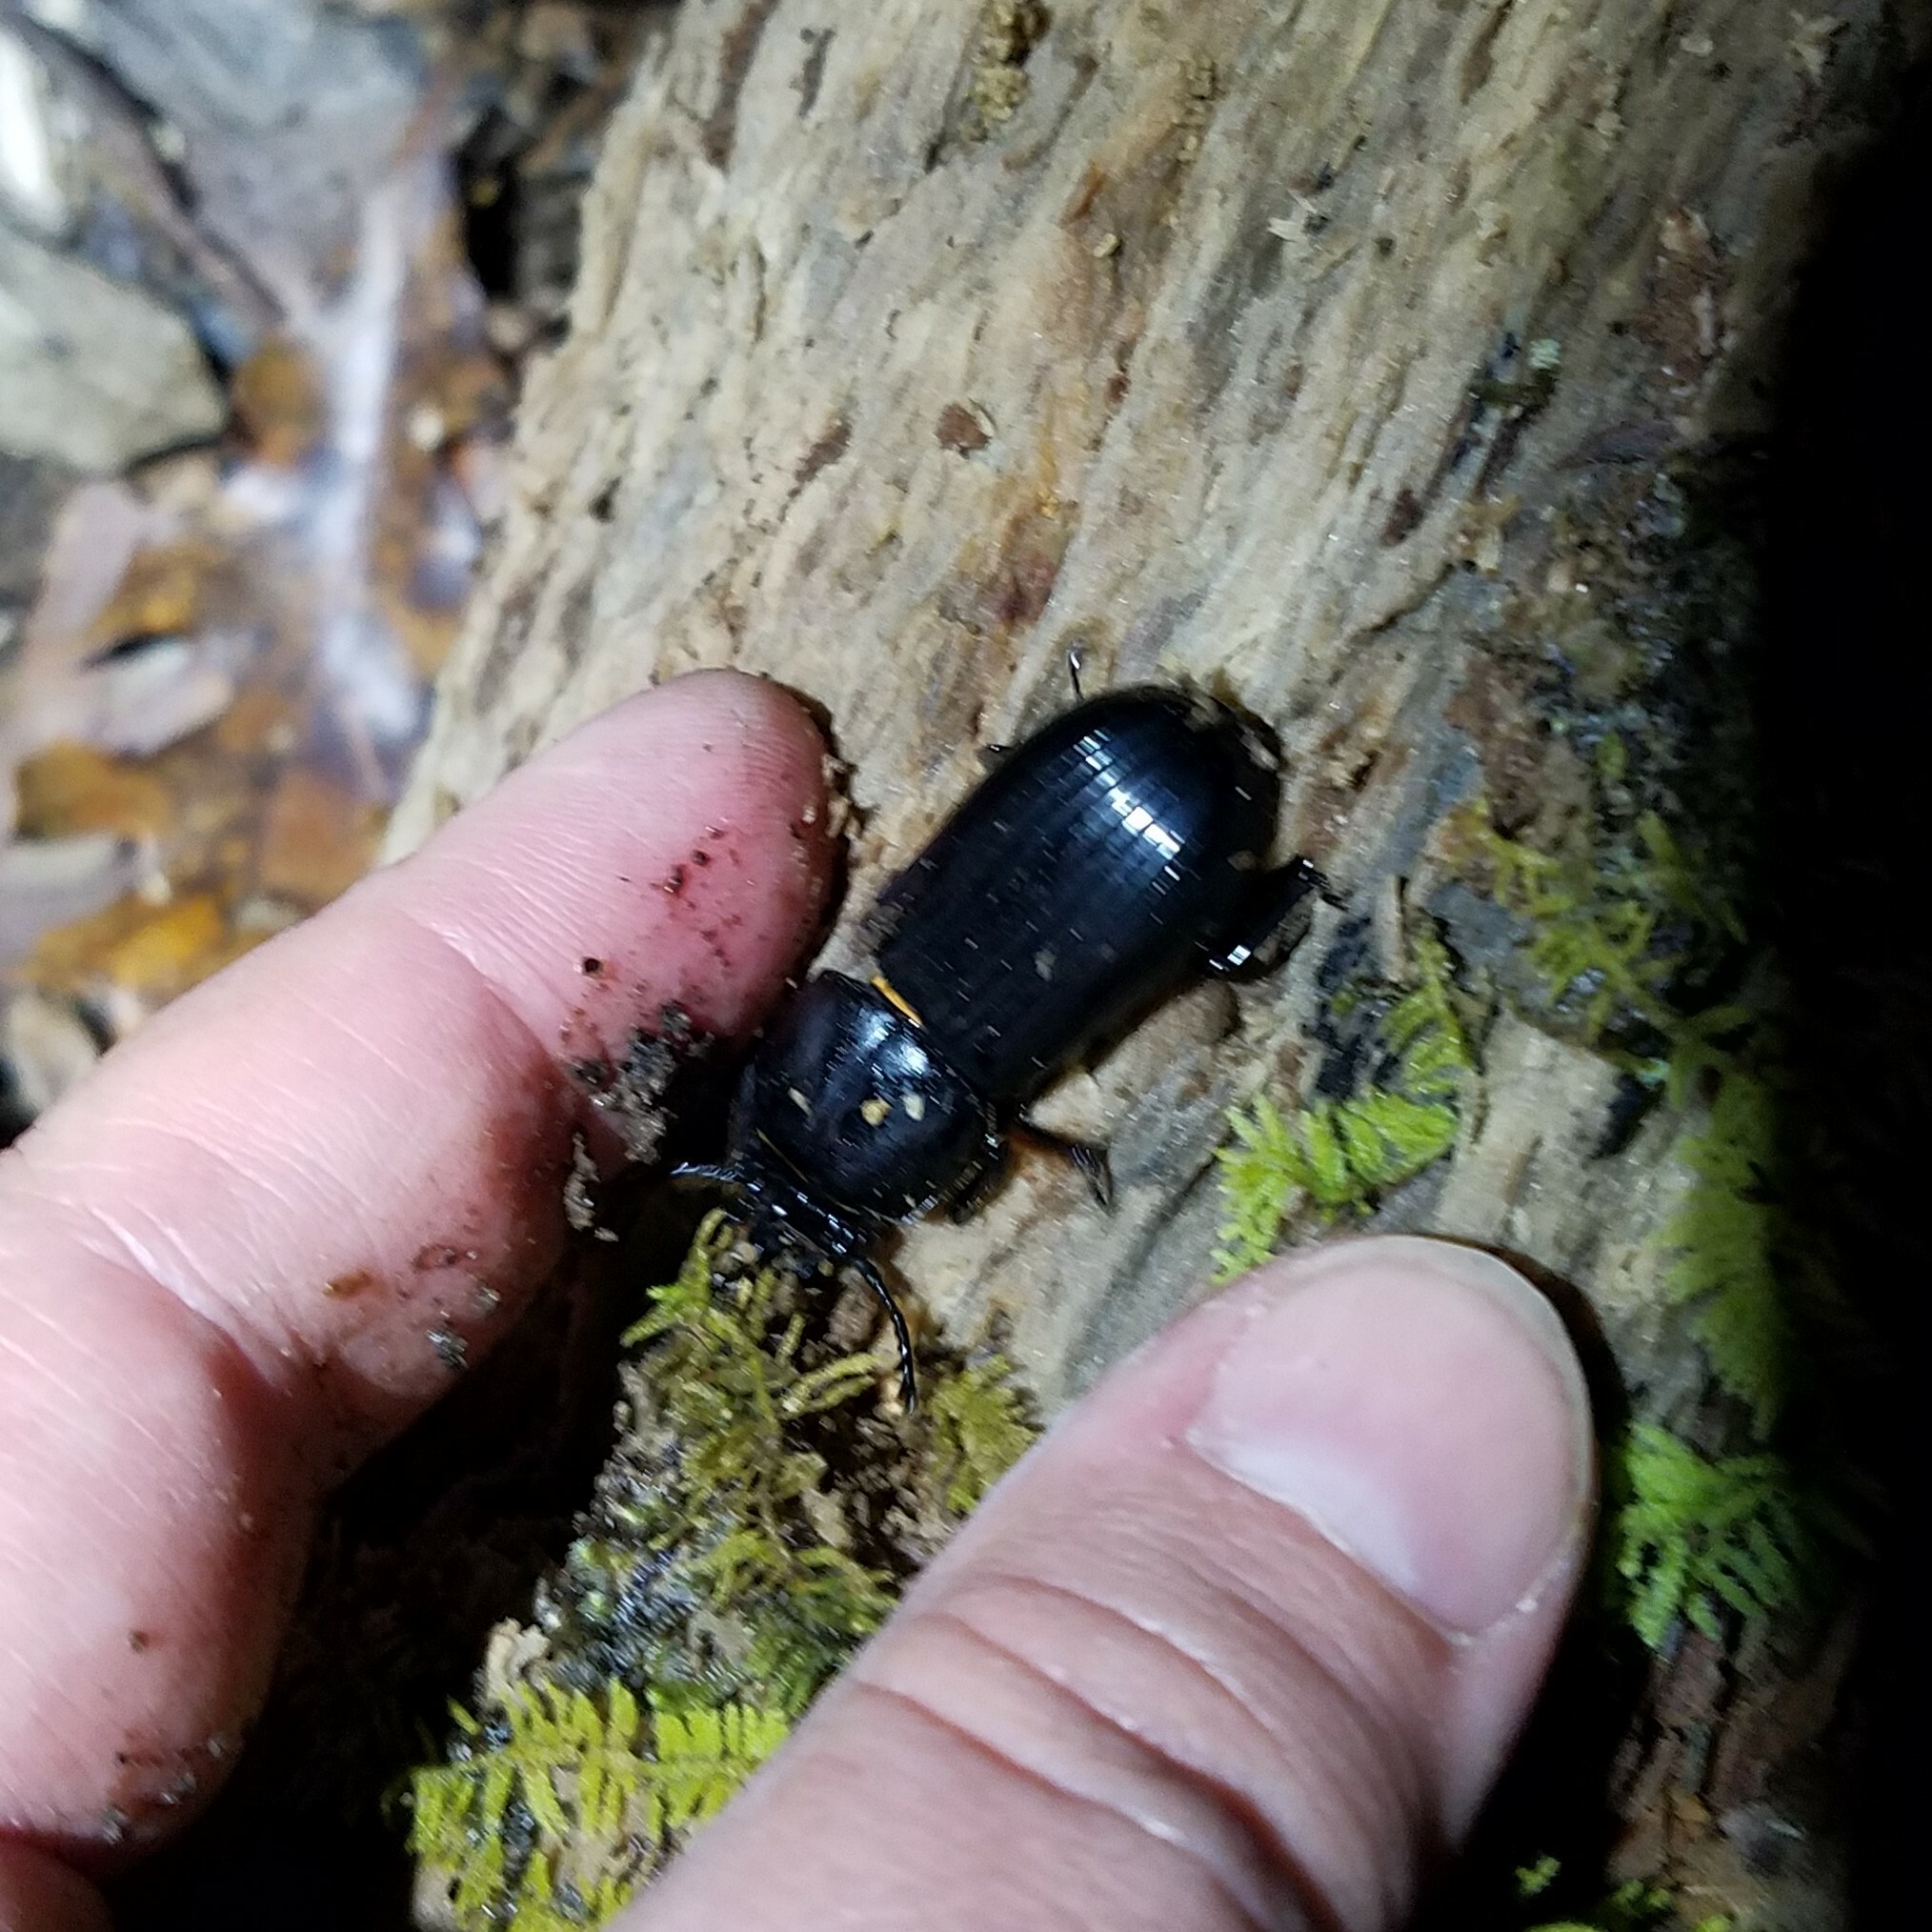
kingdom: Animalia
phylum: Arthropoda
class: Insecta
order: Coleoptera
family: Passalidae
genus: Odontotaenius
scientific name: Odontotaenius disjunctus
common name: Patent leather beetle
